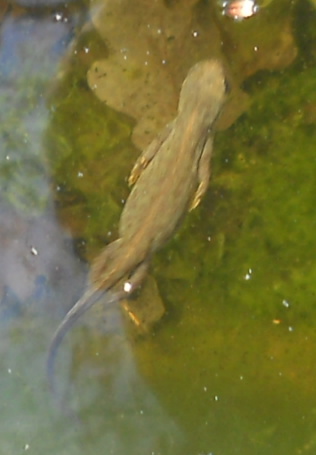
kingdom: Animalia
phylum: Chordata
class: Amphibia
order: Caudata
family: Salamandridae
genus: Ichthyosaura
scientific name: Ichthyosaura alpestris
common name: Alpine newt
